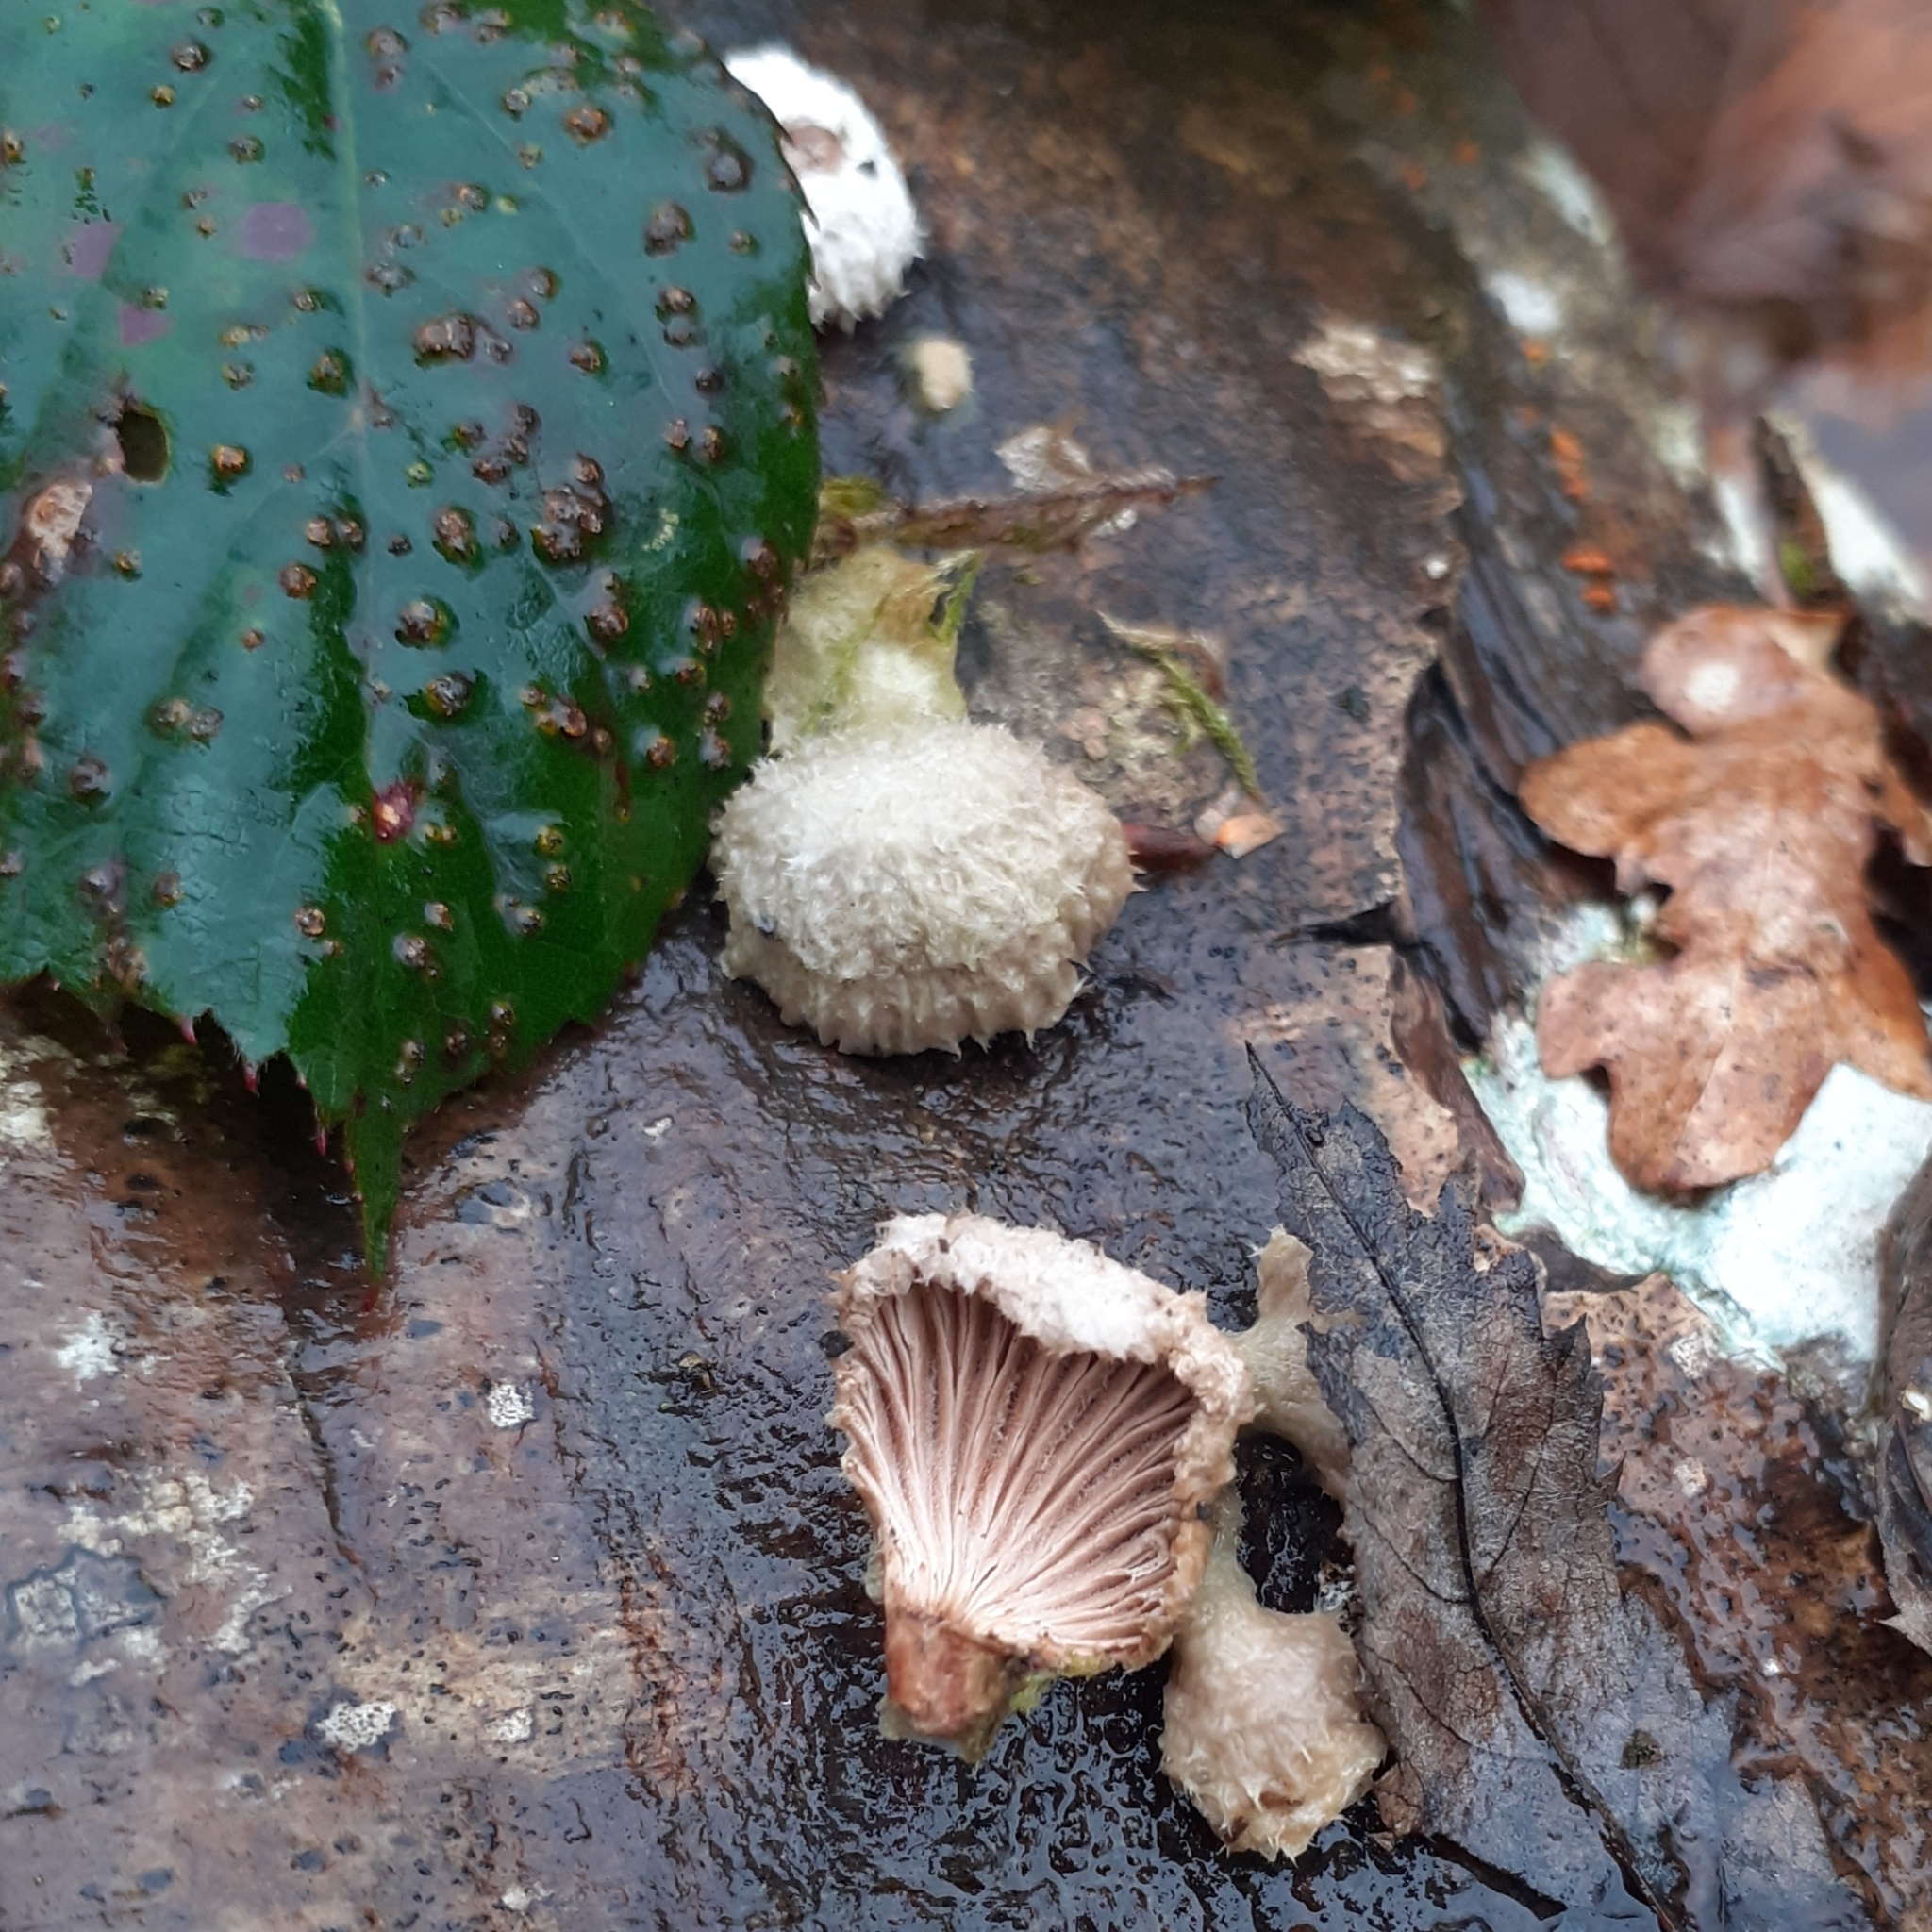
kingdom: Fungi
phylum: Basidiomycota
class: Agaricomycetes
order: Agaricales
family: Schizophyllaceae
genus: Schizophyllum
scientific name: Schizophyllum commune
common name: Common porecrust
